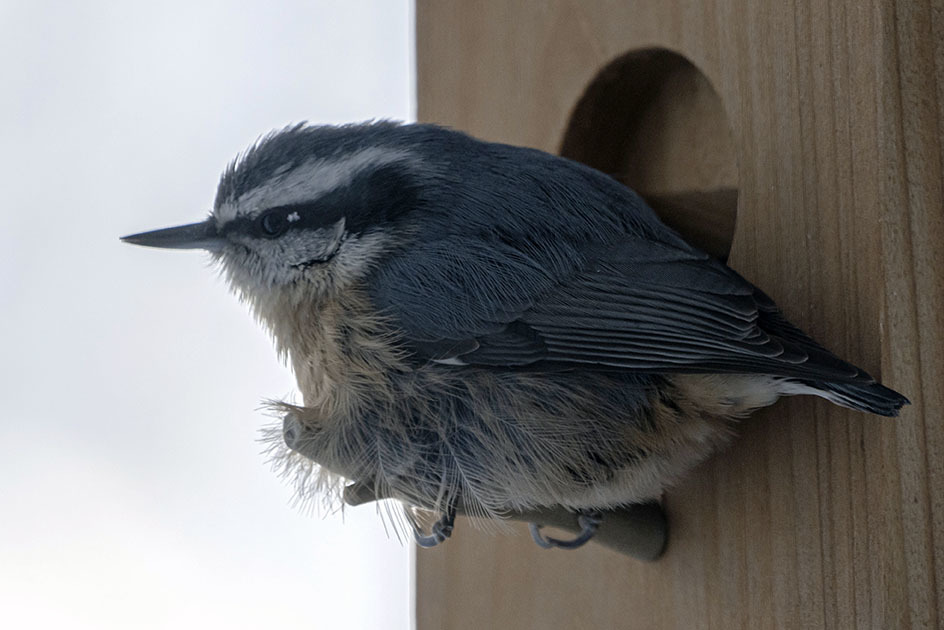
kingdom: Animalia
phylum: Chordata
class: Aves
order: Passeriformes
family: Sittidae
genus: Sitta
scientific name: Sitta canadensis
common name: Red-breasted nuthatch
